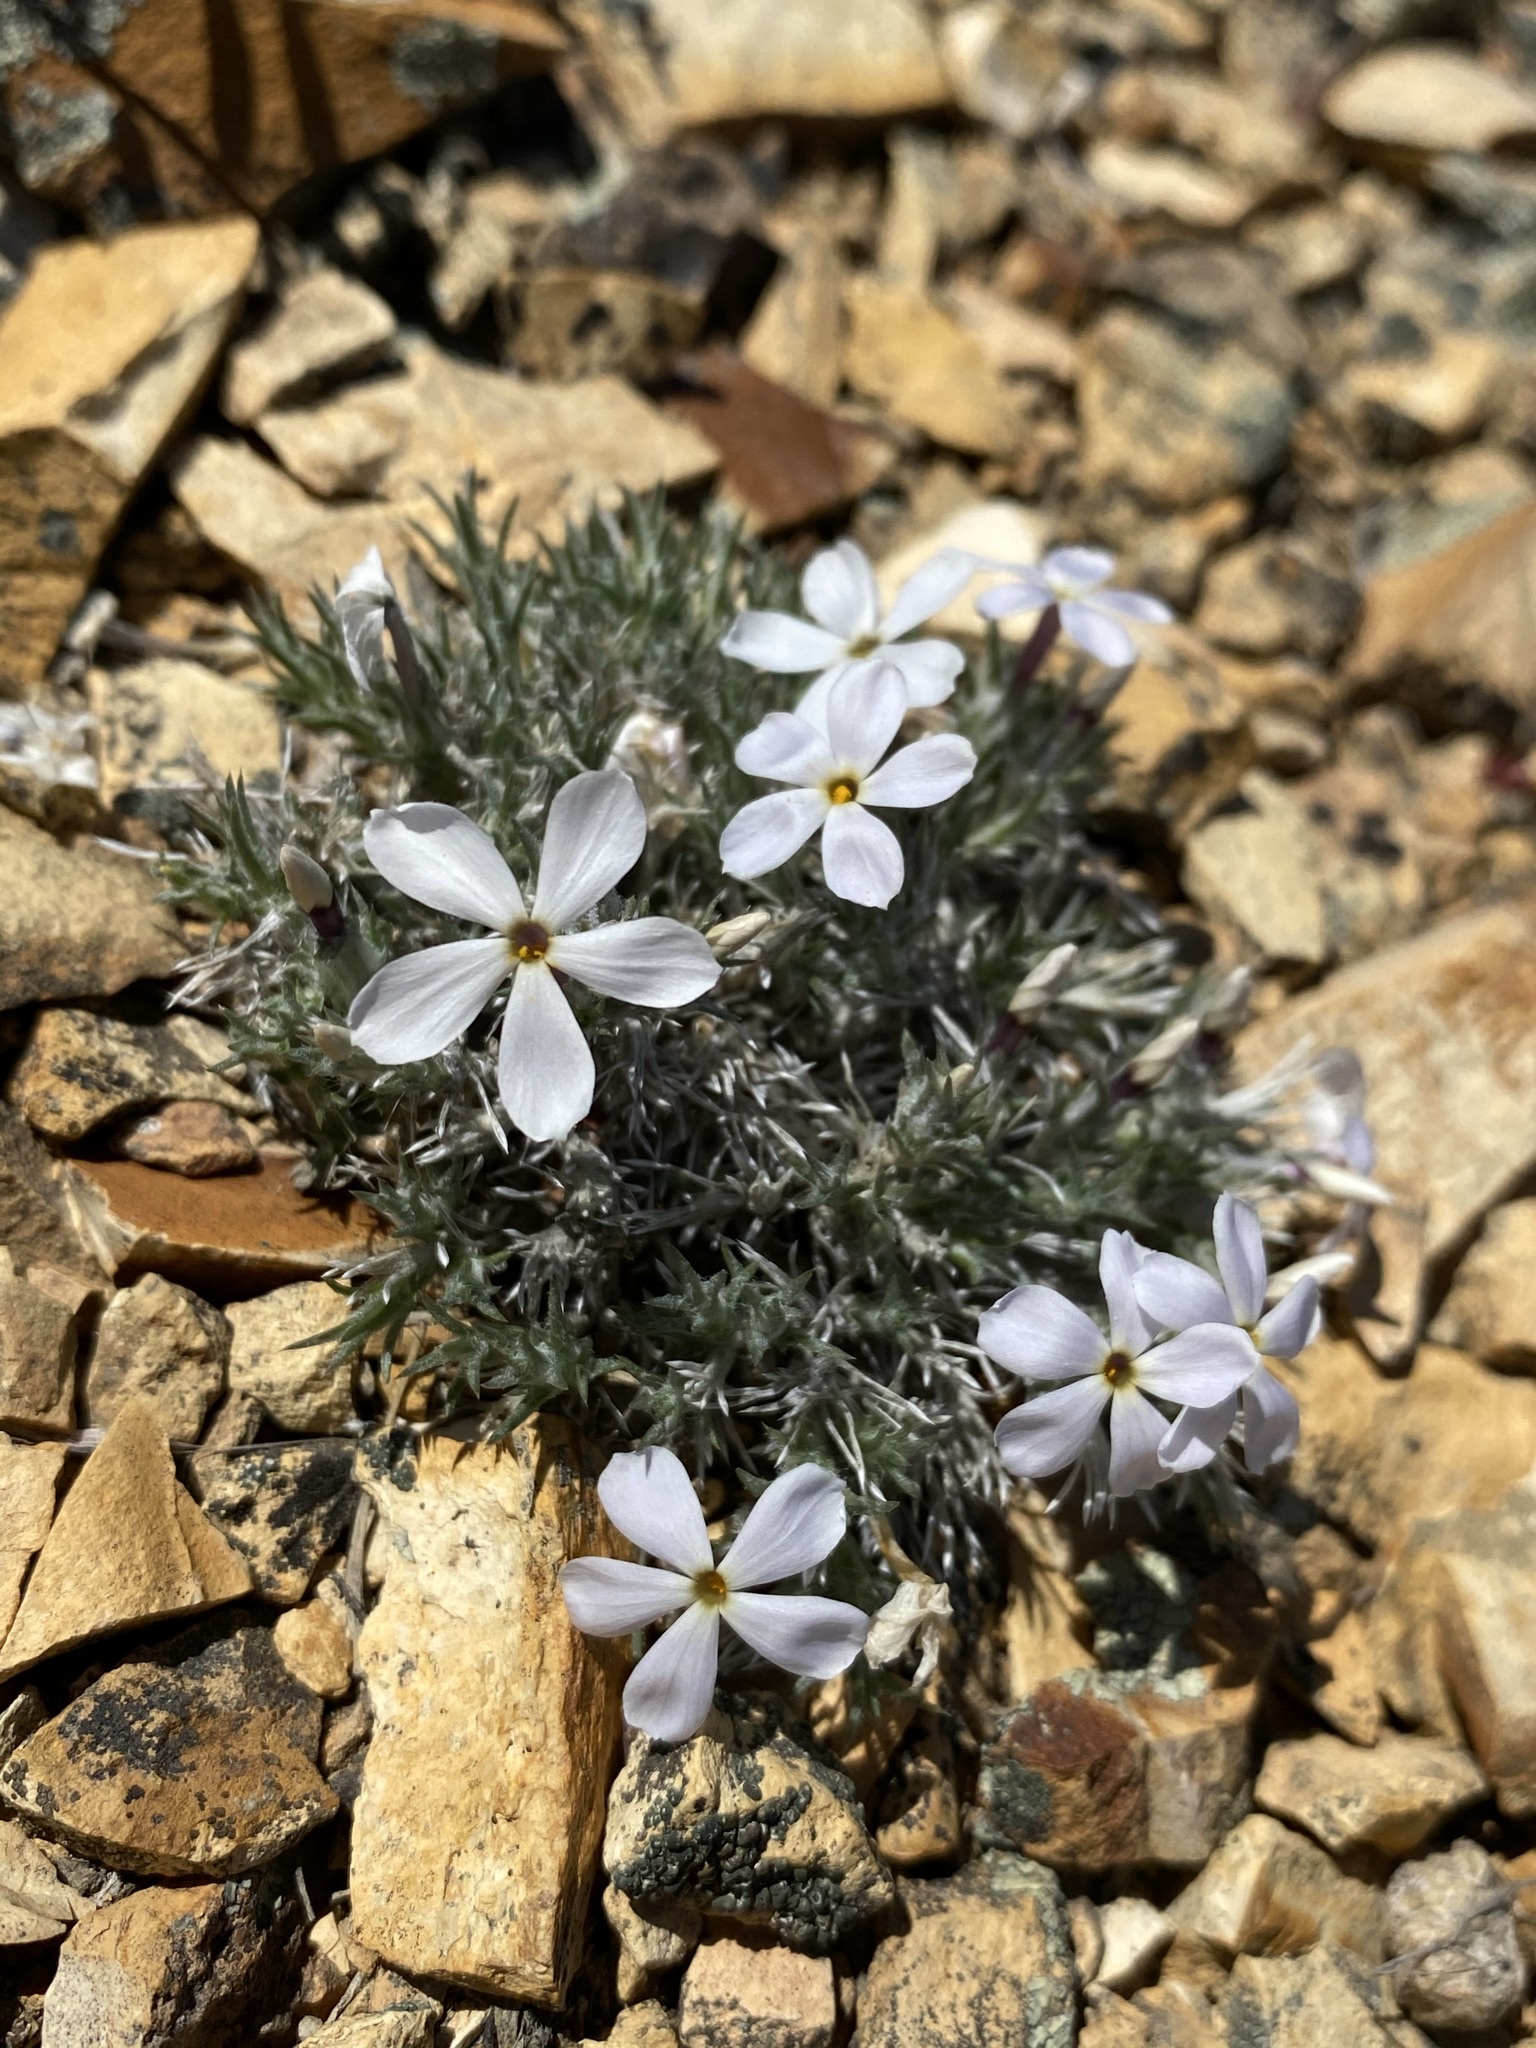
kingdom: Plantae
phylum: Tracheophyta
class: Magnoliopsida
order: Ericales
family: Polemoniaceae
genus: Phlox
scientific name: Phlox hoodii
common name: Moss phlox
